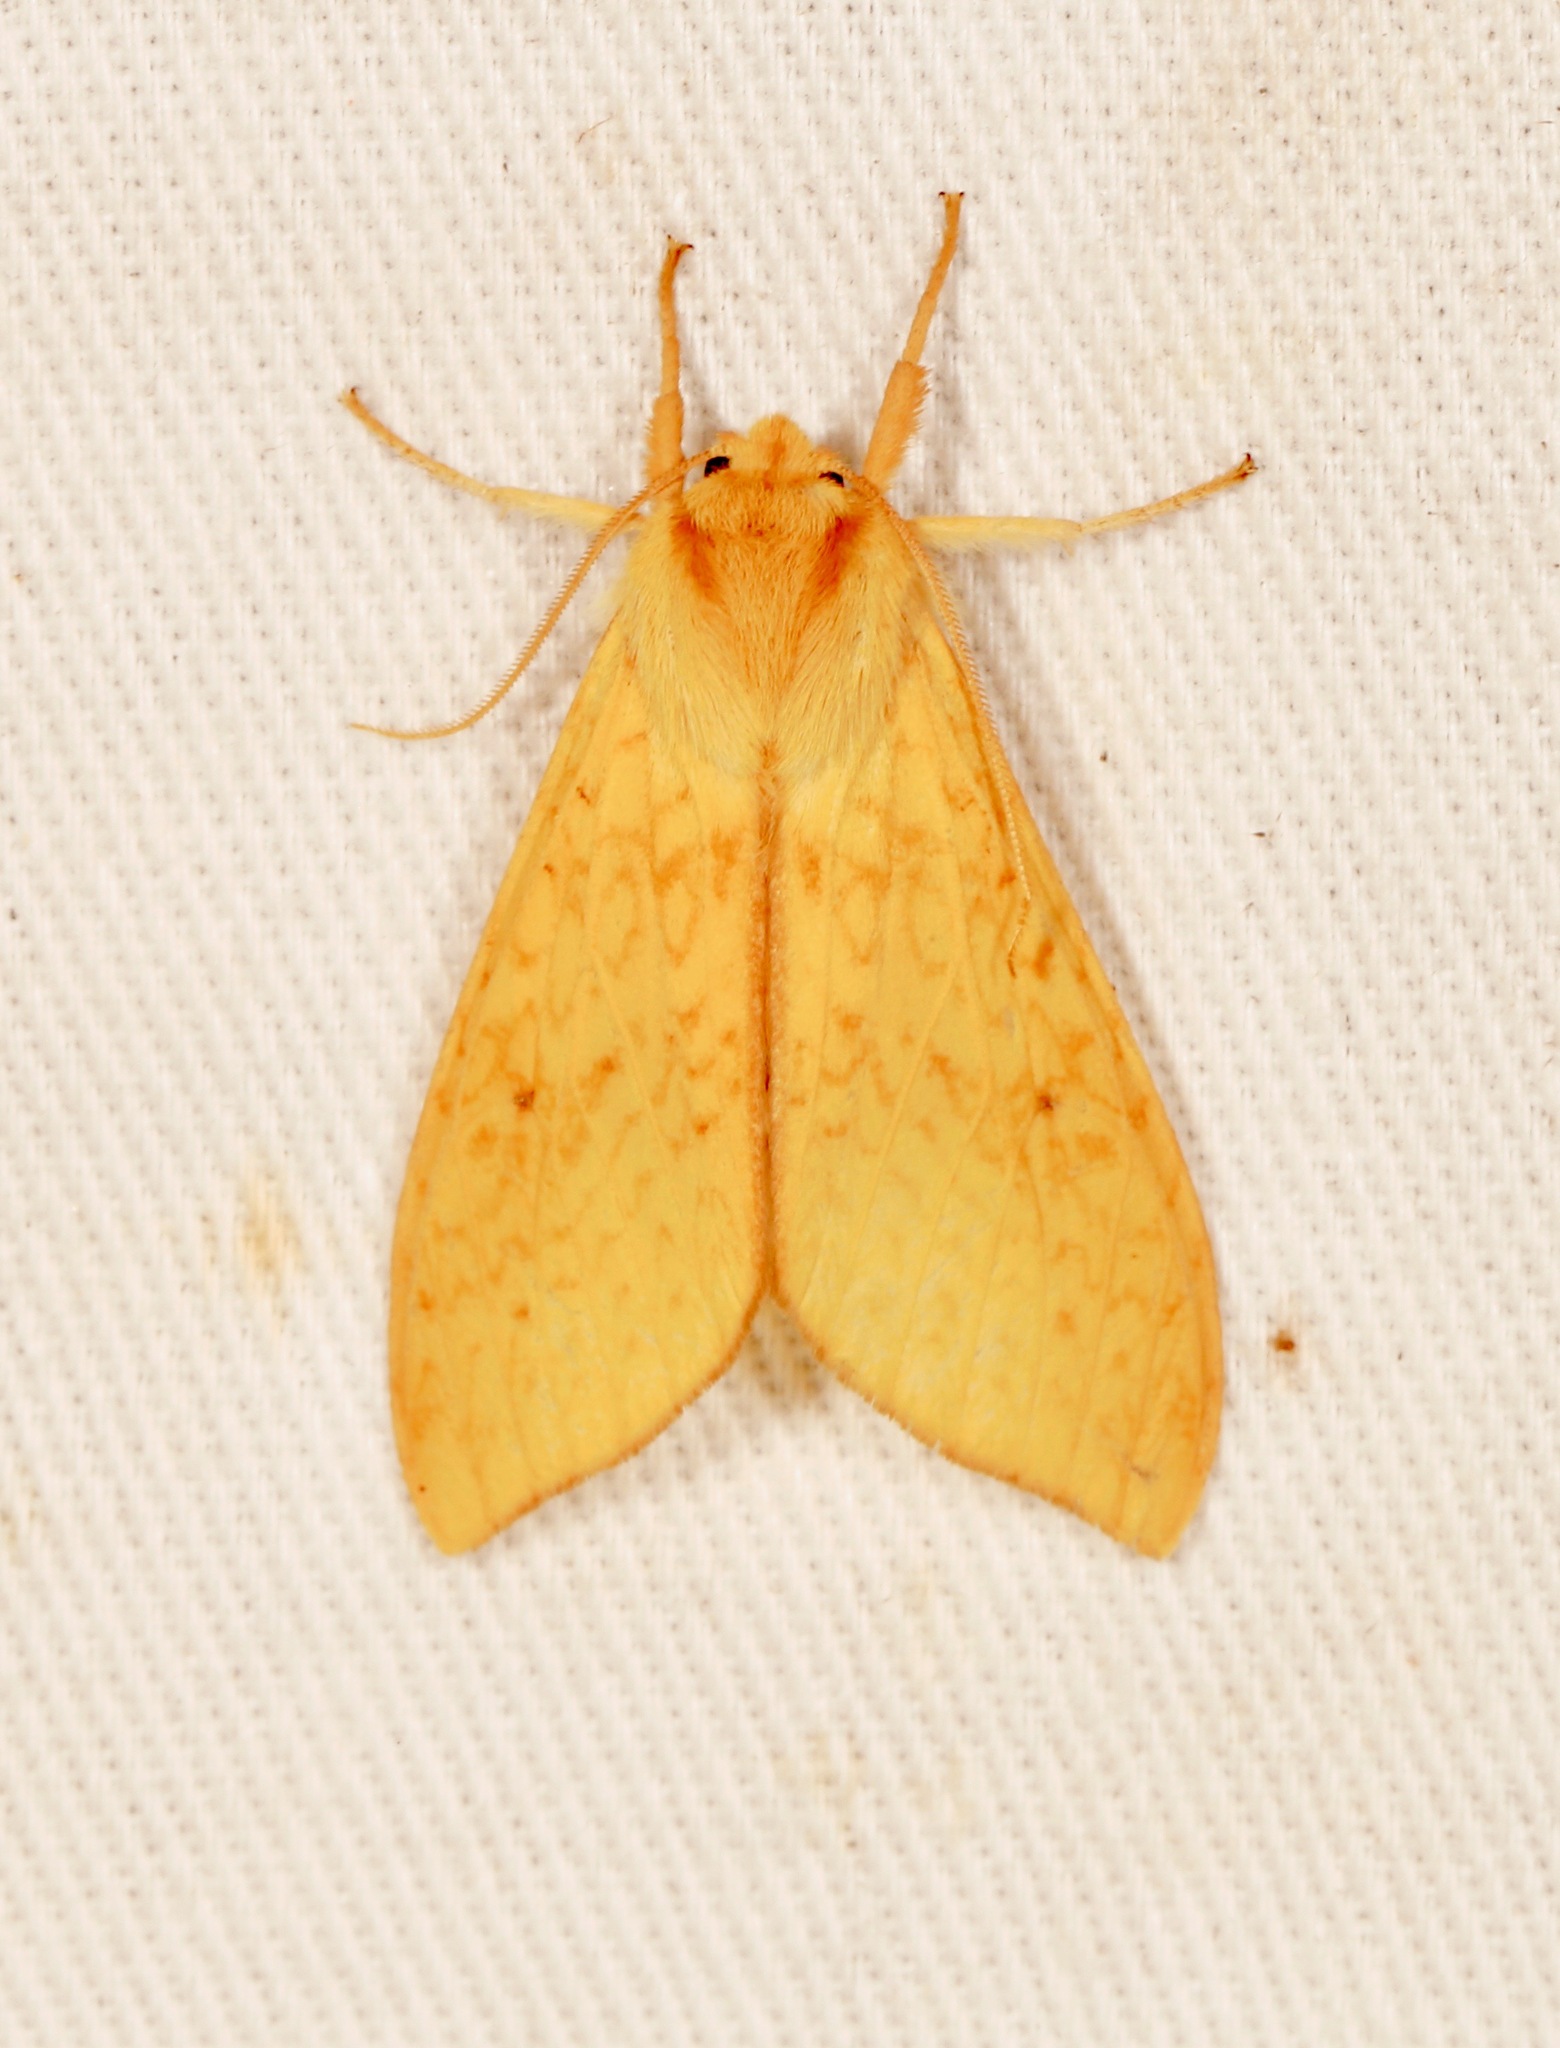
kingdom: Animalia
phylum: Arthropoda
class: Insecta
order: Lepidoptera
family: Erebidae
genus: Lophocampa
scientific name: Lophocampa pura
